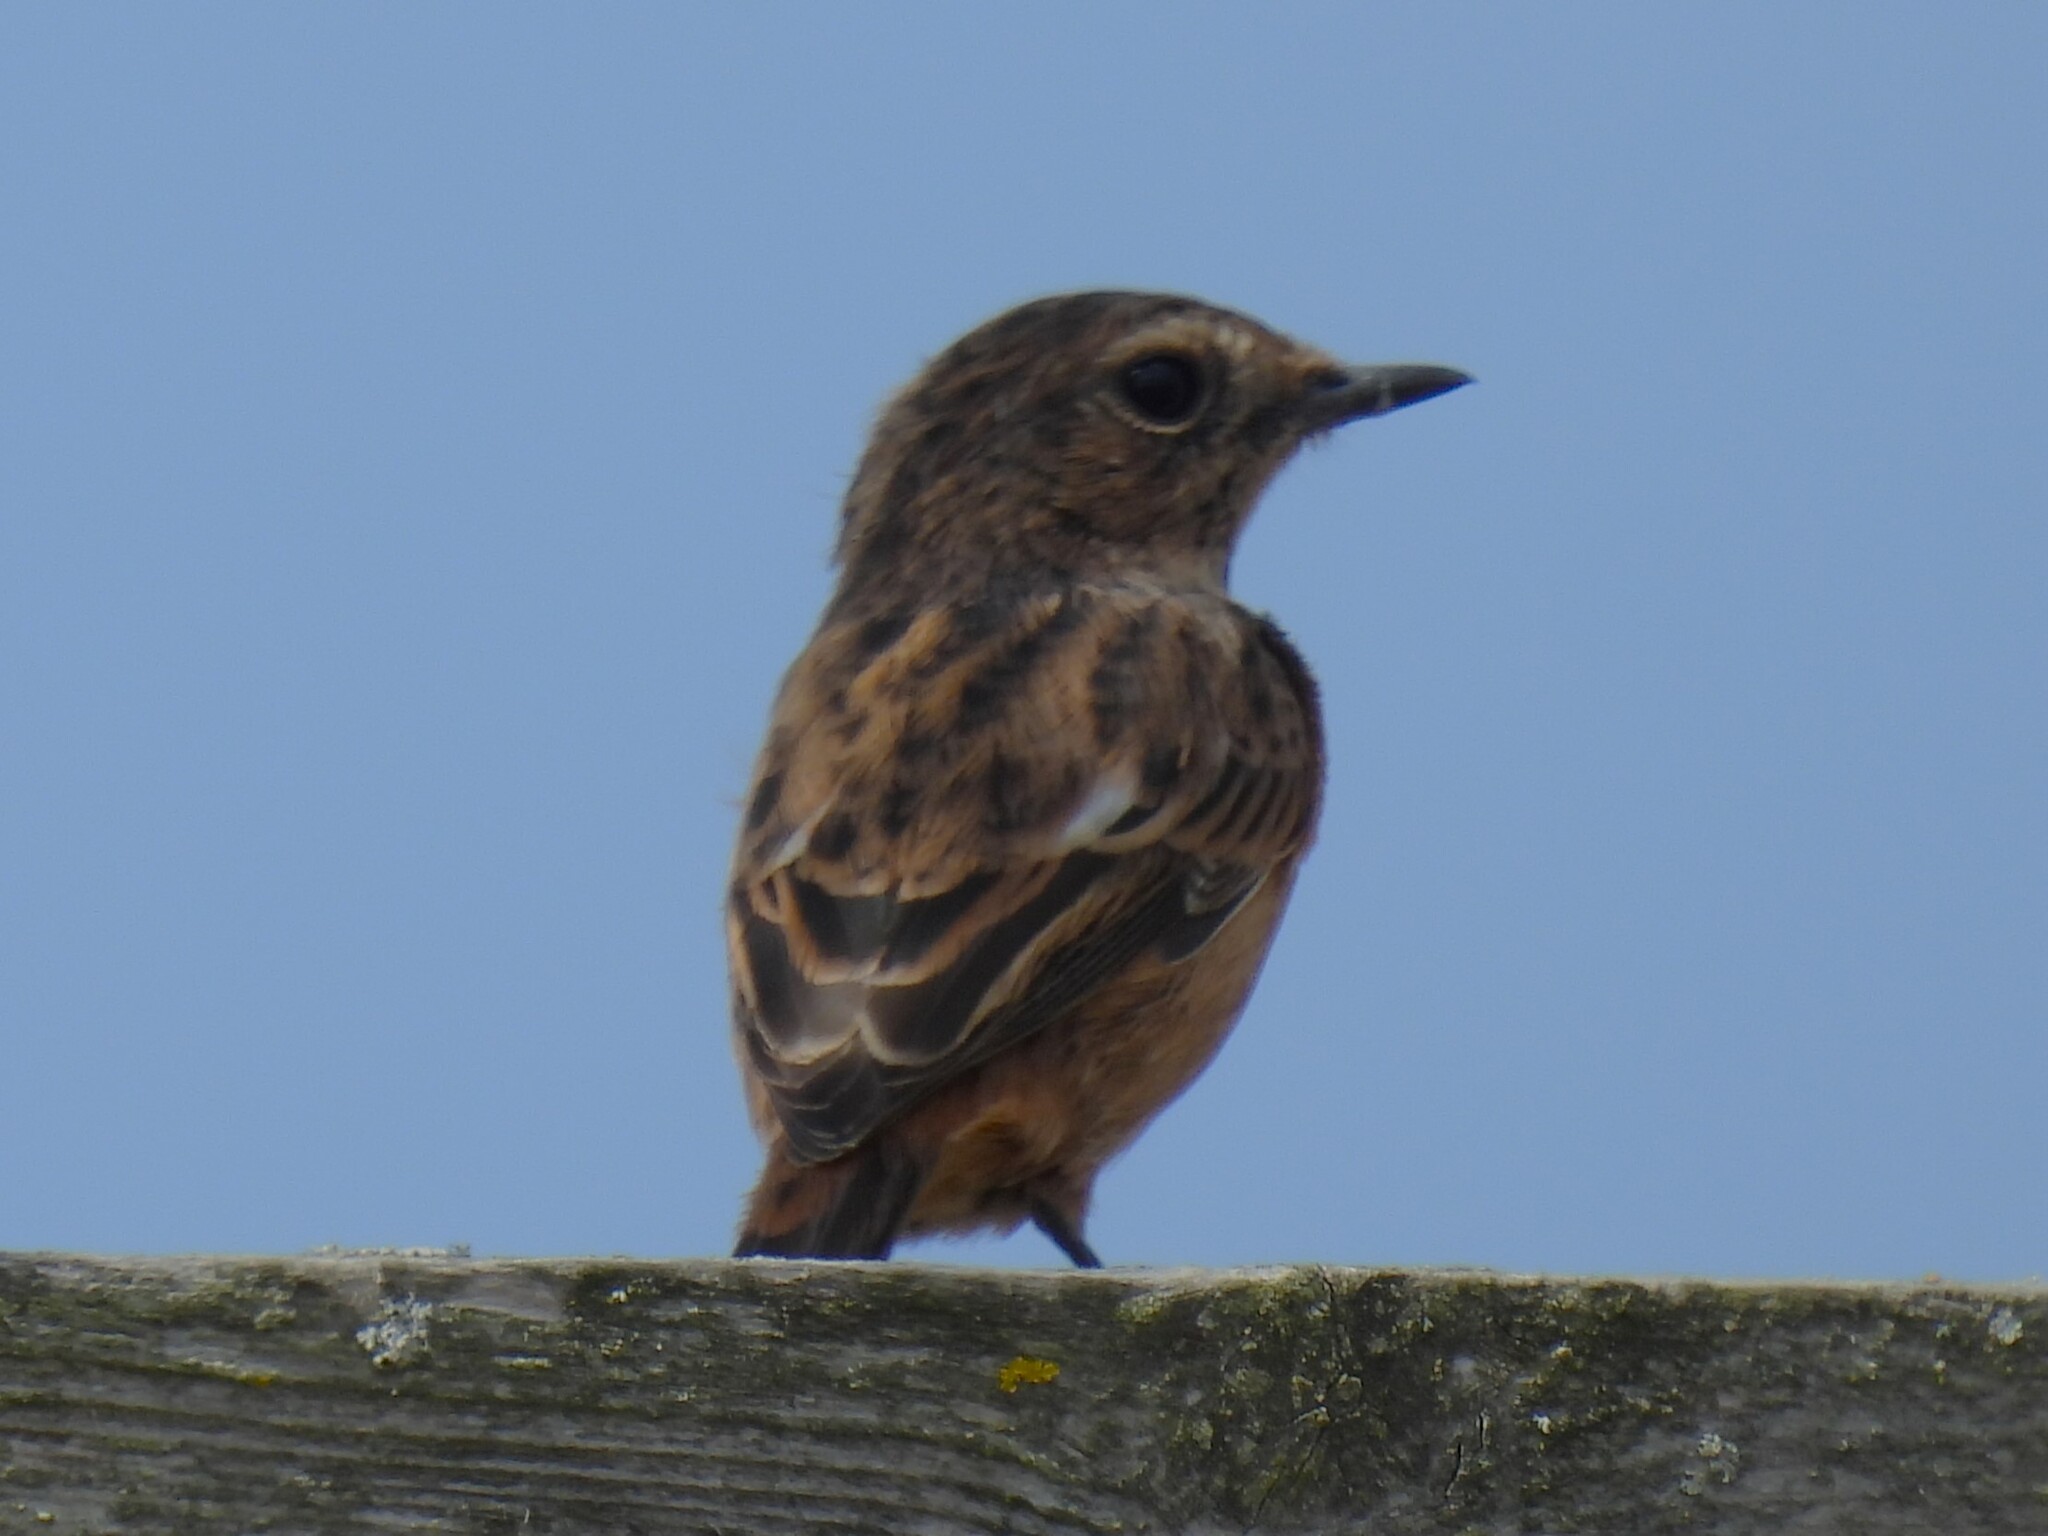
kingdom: Animalia
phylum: Chordata
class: Aves
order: Passeriformes
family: Muscicapidae
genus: Saxicola
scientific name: Saxicola rubicola
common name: European stonechat
